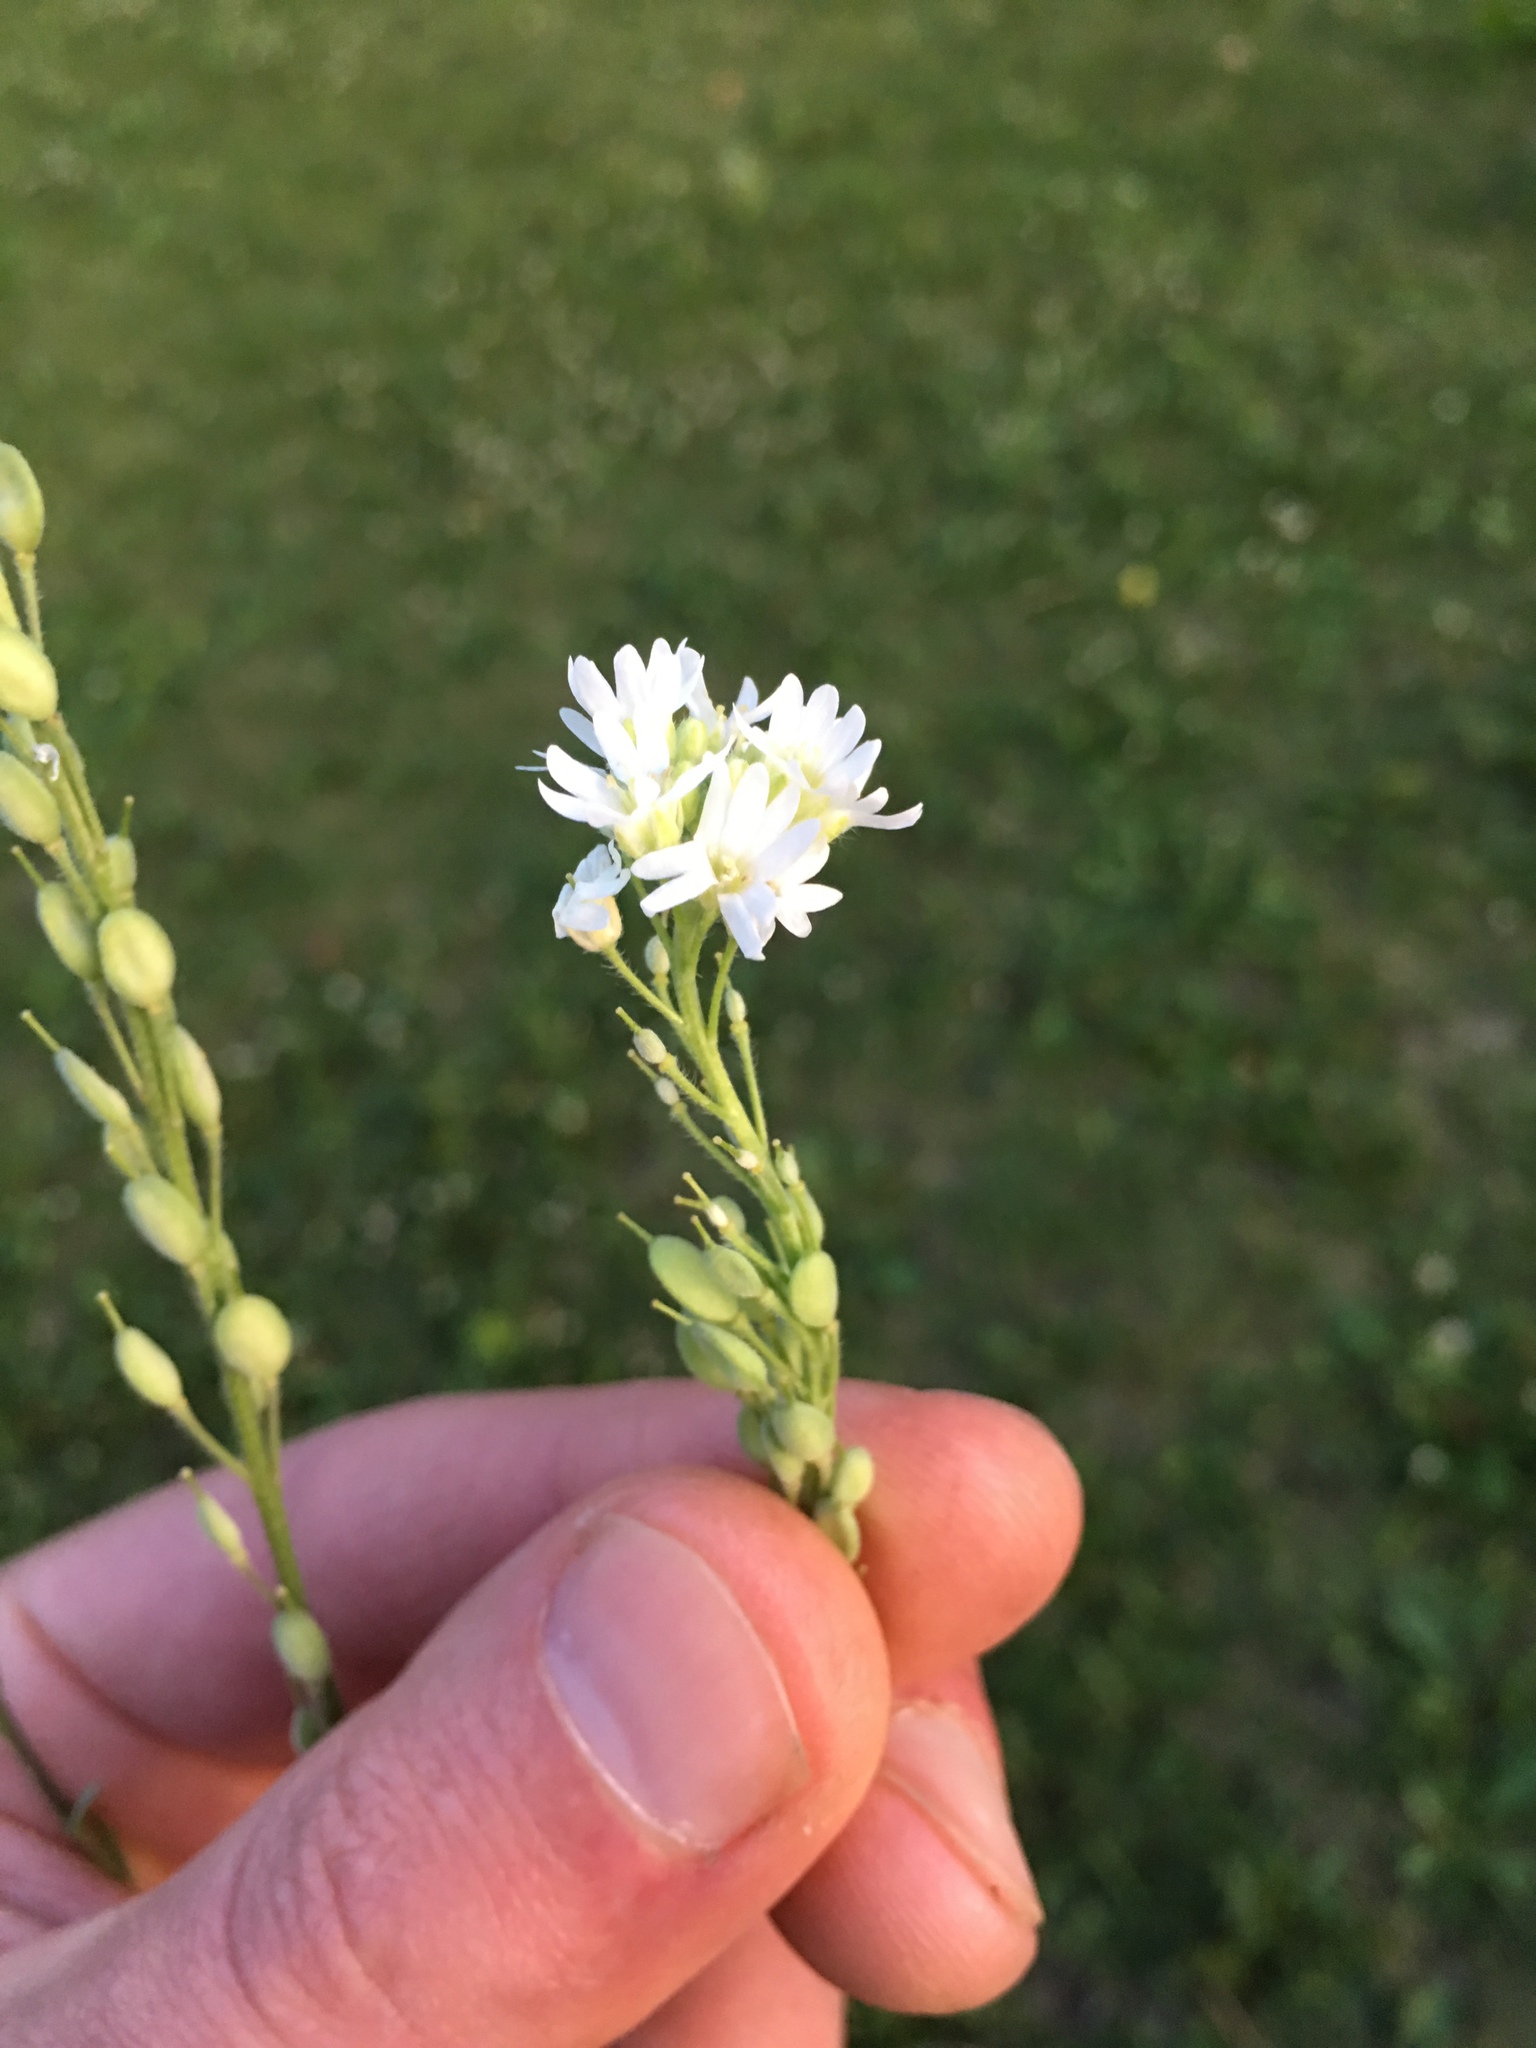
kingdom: Plantae
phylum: Tracheophyta
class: Magnoliopsida
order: Brassicales
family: Brassicaceae
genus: Berteroa
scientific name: Berteroa incana
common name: Hoary alison
